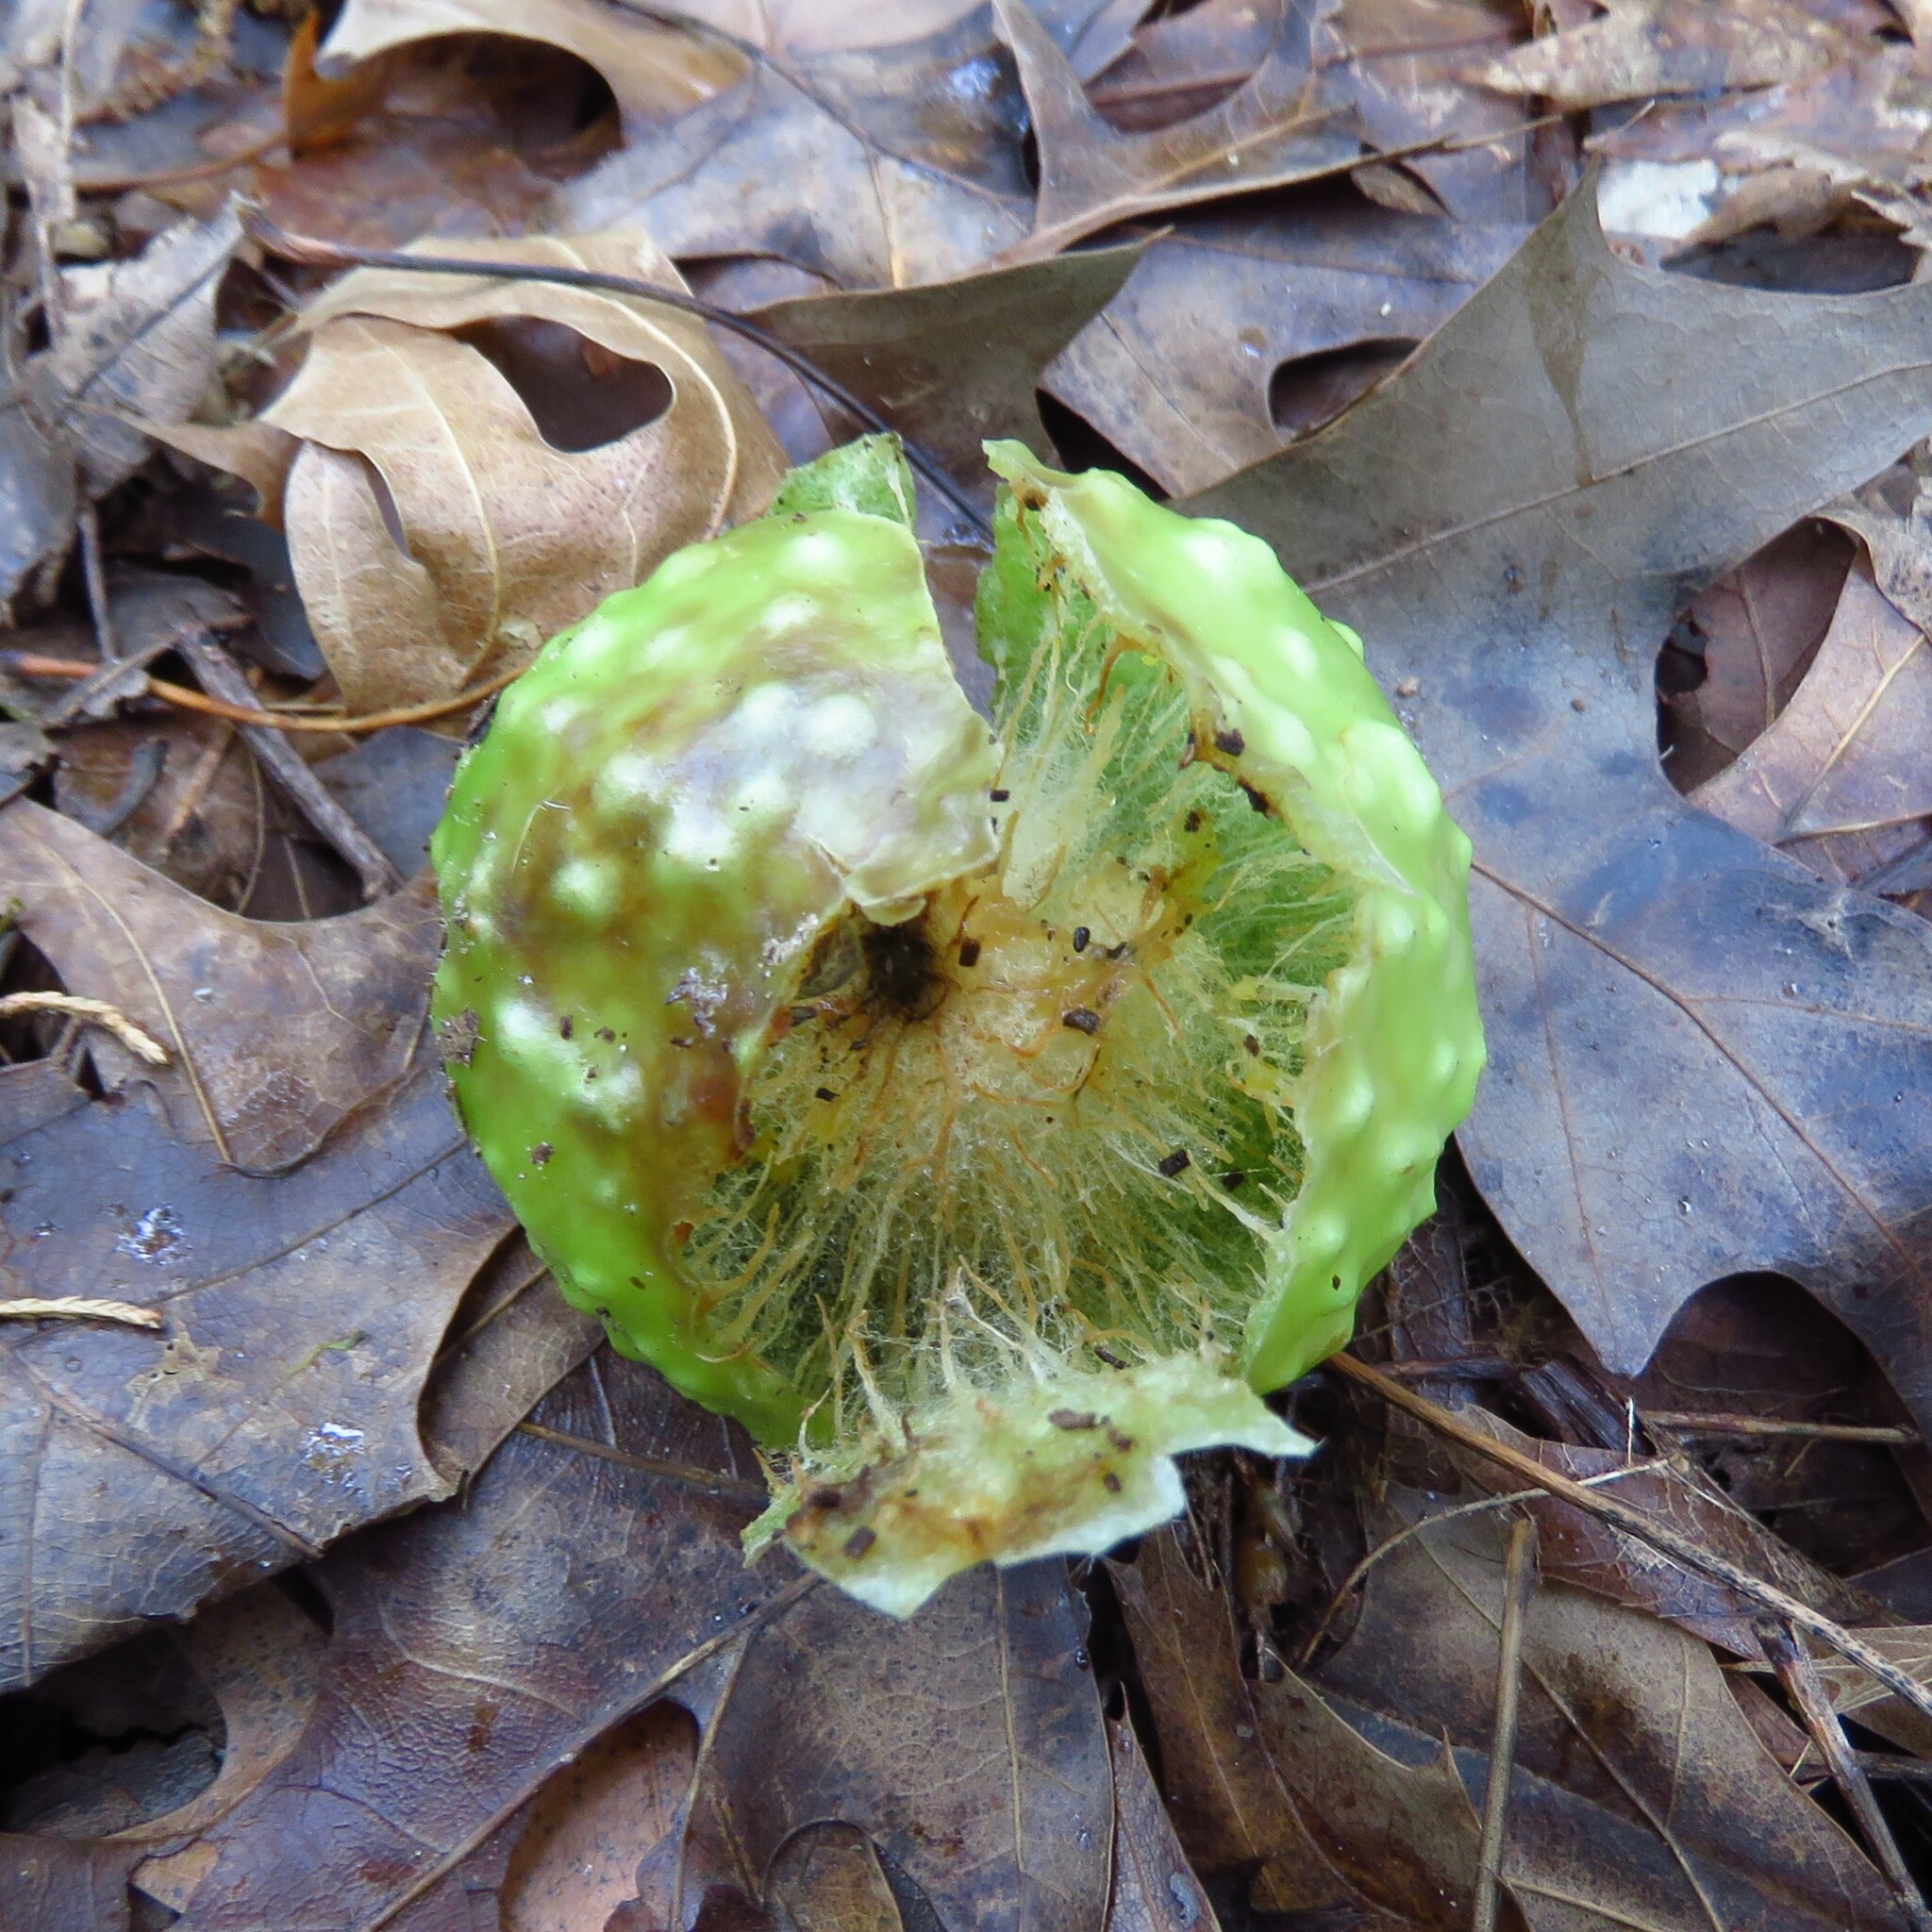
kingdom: Animalia
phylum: Arthropoda
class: Insecta
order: Hymenoptera
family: Cynipidae
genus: Amphibolips
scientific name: Amphibolips
